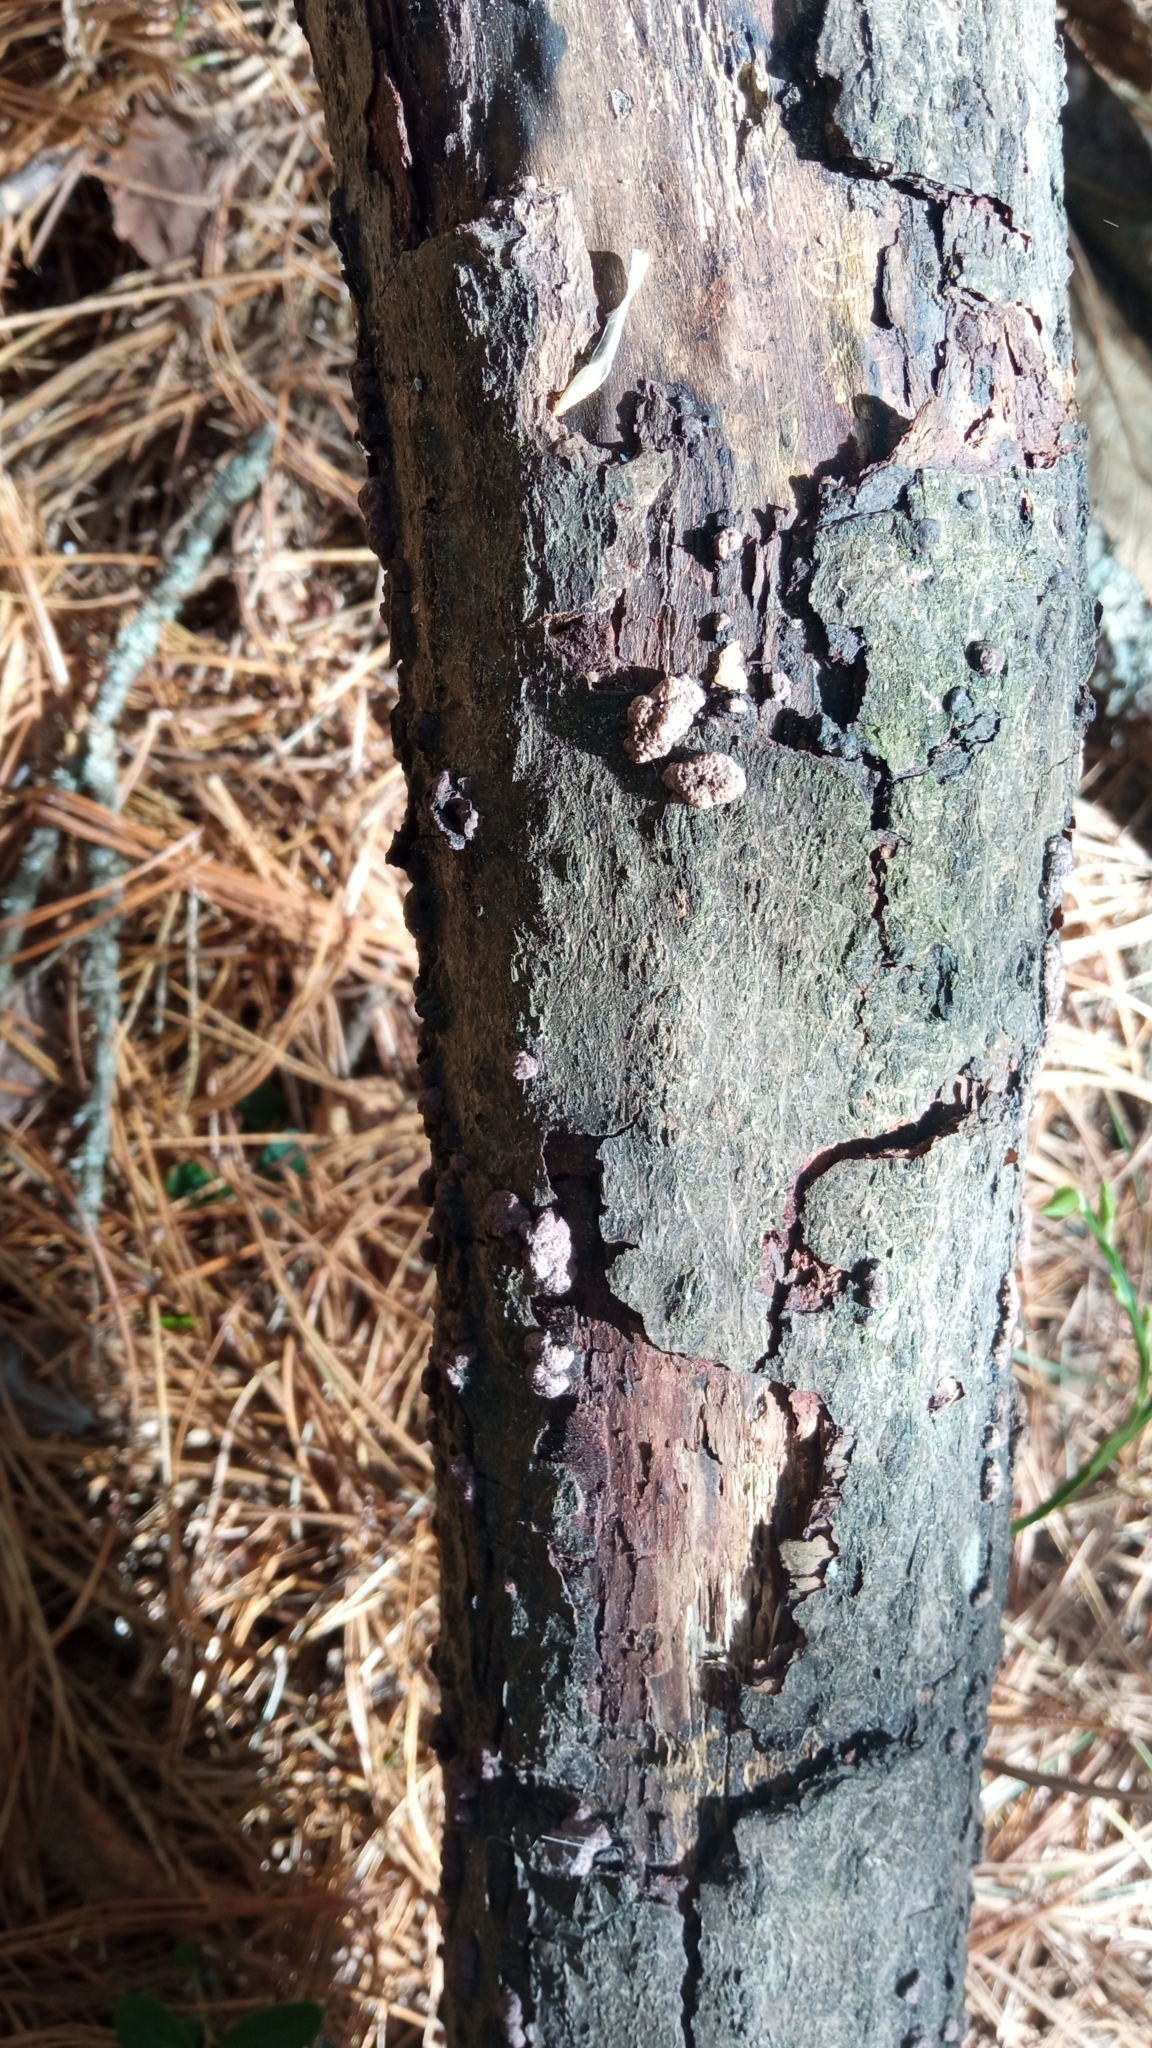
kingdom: Fungi
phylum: Ascomycota
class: Sordariomycetes
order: Xylariales
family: Hypoxylaceae
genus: Hypoxylon
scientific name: Hypoxylon fuscum
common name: Hazel woodwart
